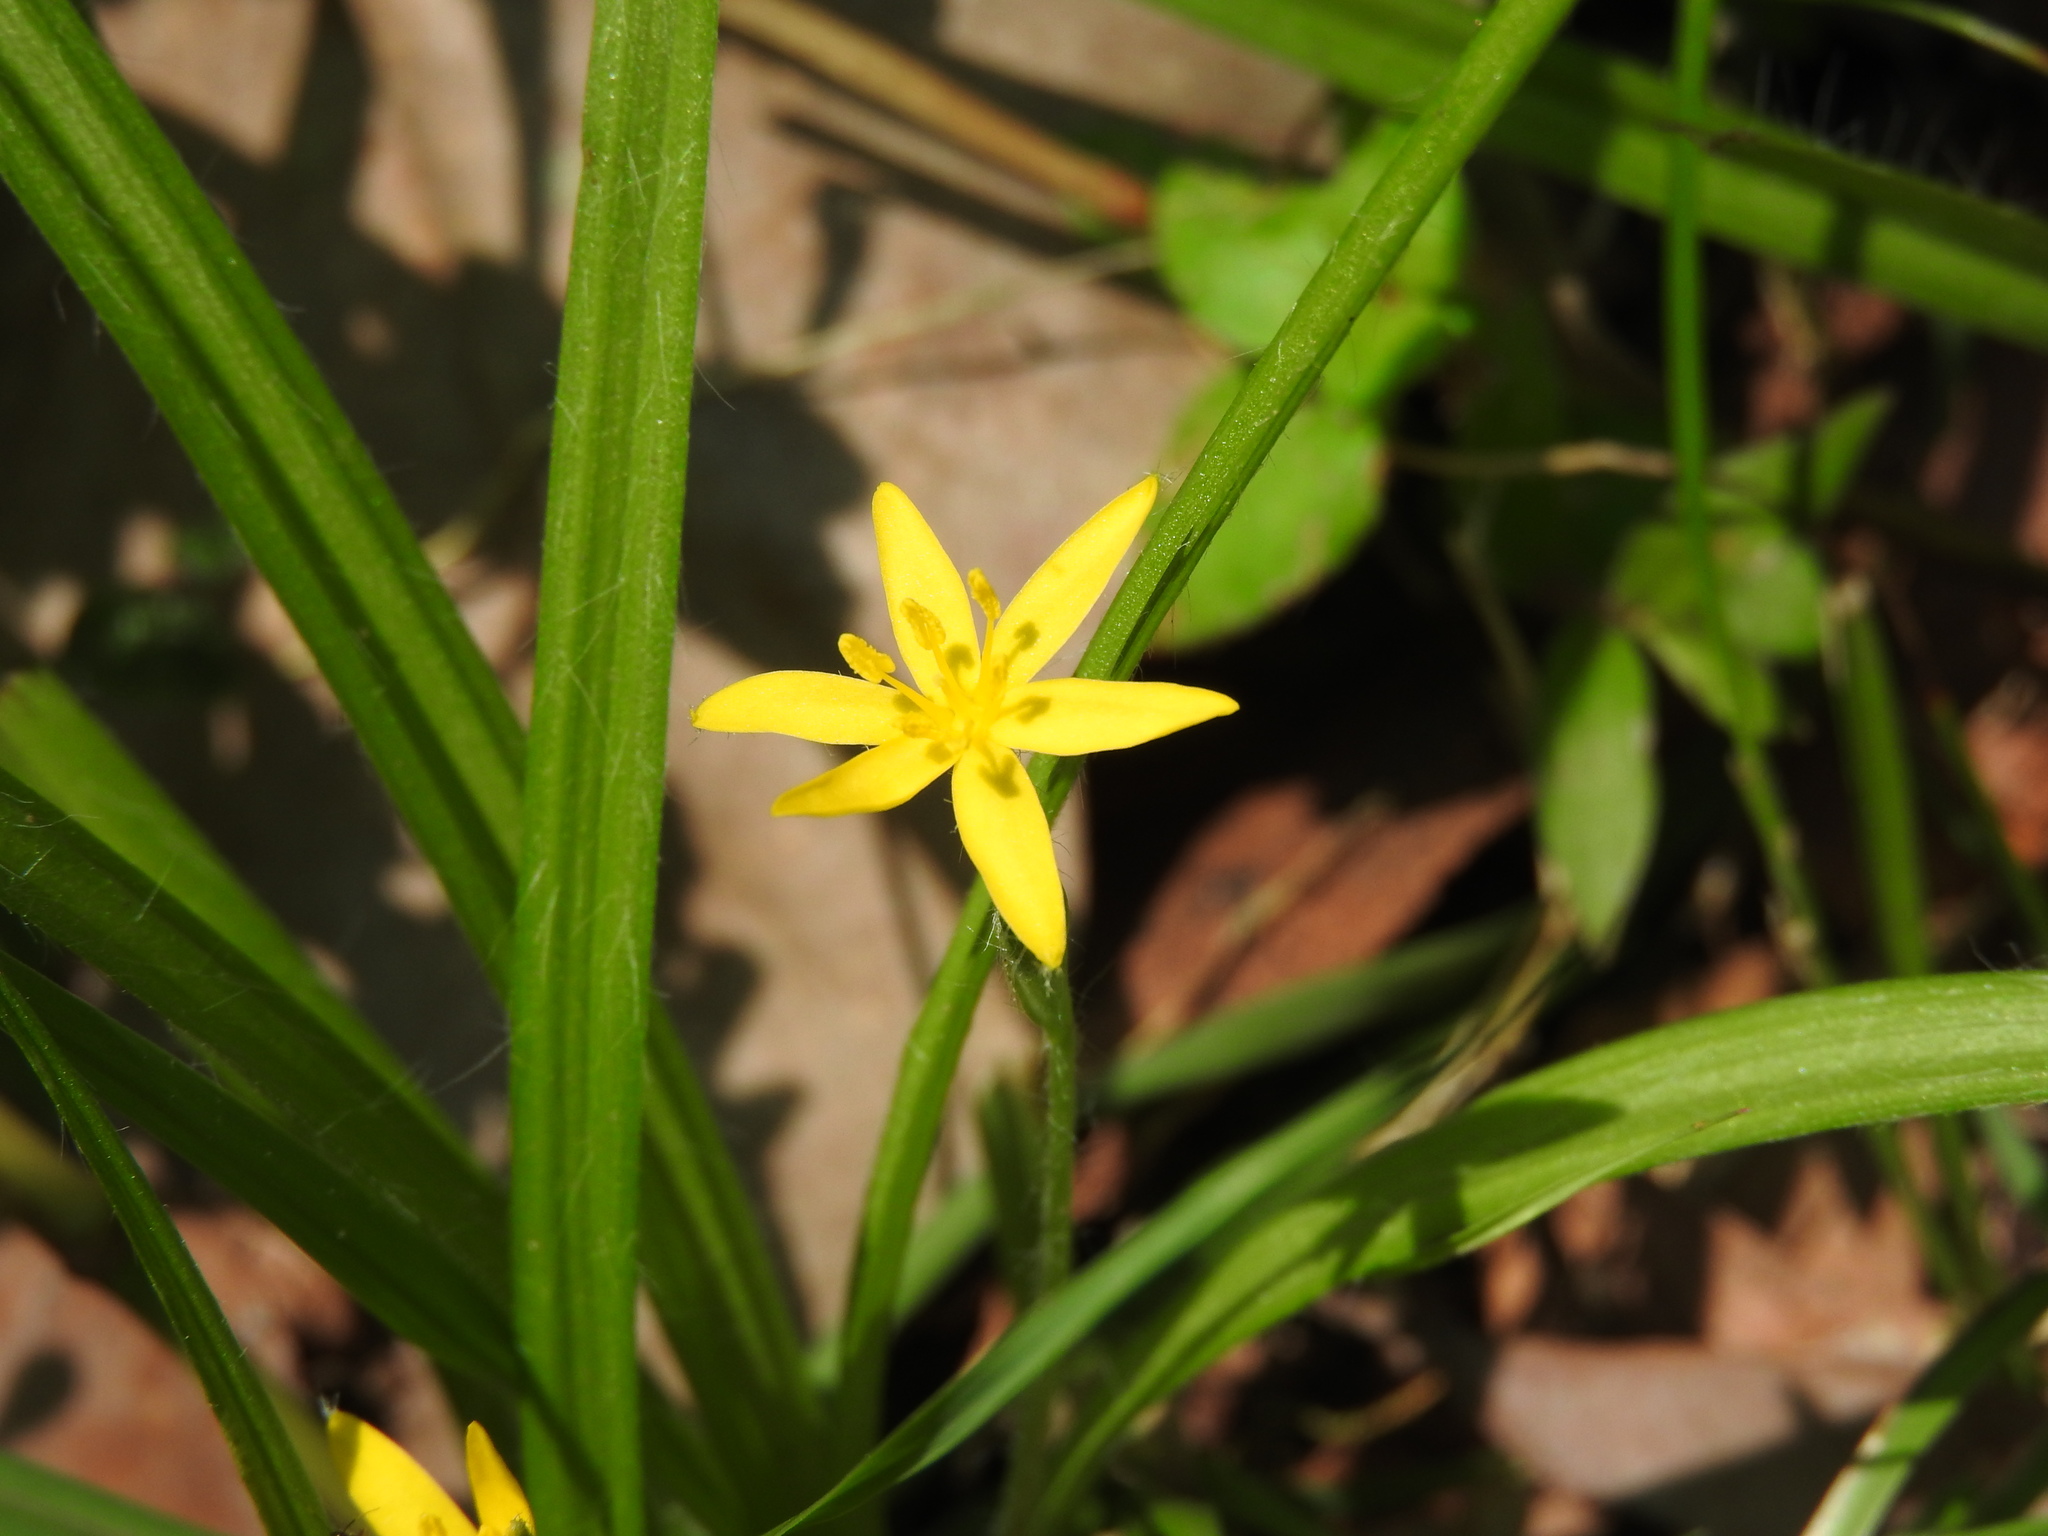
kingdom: Plantae
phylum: Tracheophyta
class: Liliopsida
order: Asparagales
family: Hypoxidaceae
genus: Hypoxis
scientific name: Hypoxis mexicana
